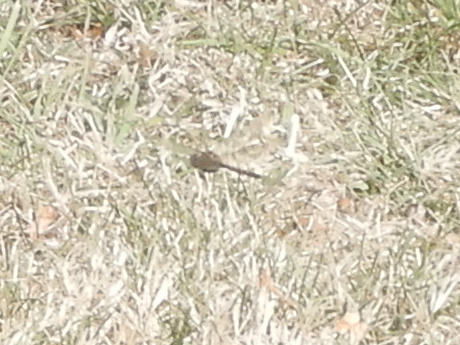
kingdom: Animalia
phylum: Arthropoda
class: Insecta
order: Odonata
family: Corduliidae
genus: Procordulia
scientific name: Procordulia smithii
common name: Ranger dragonfly
